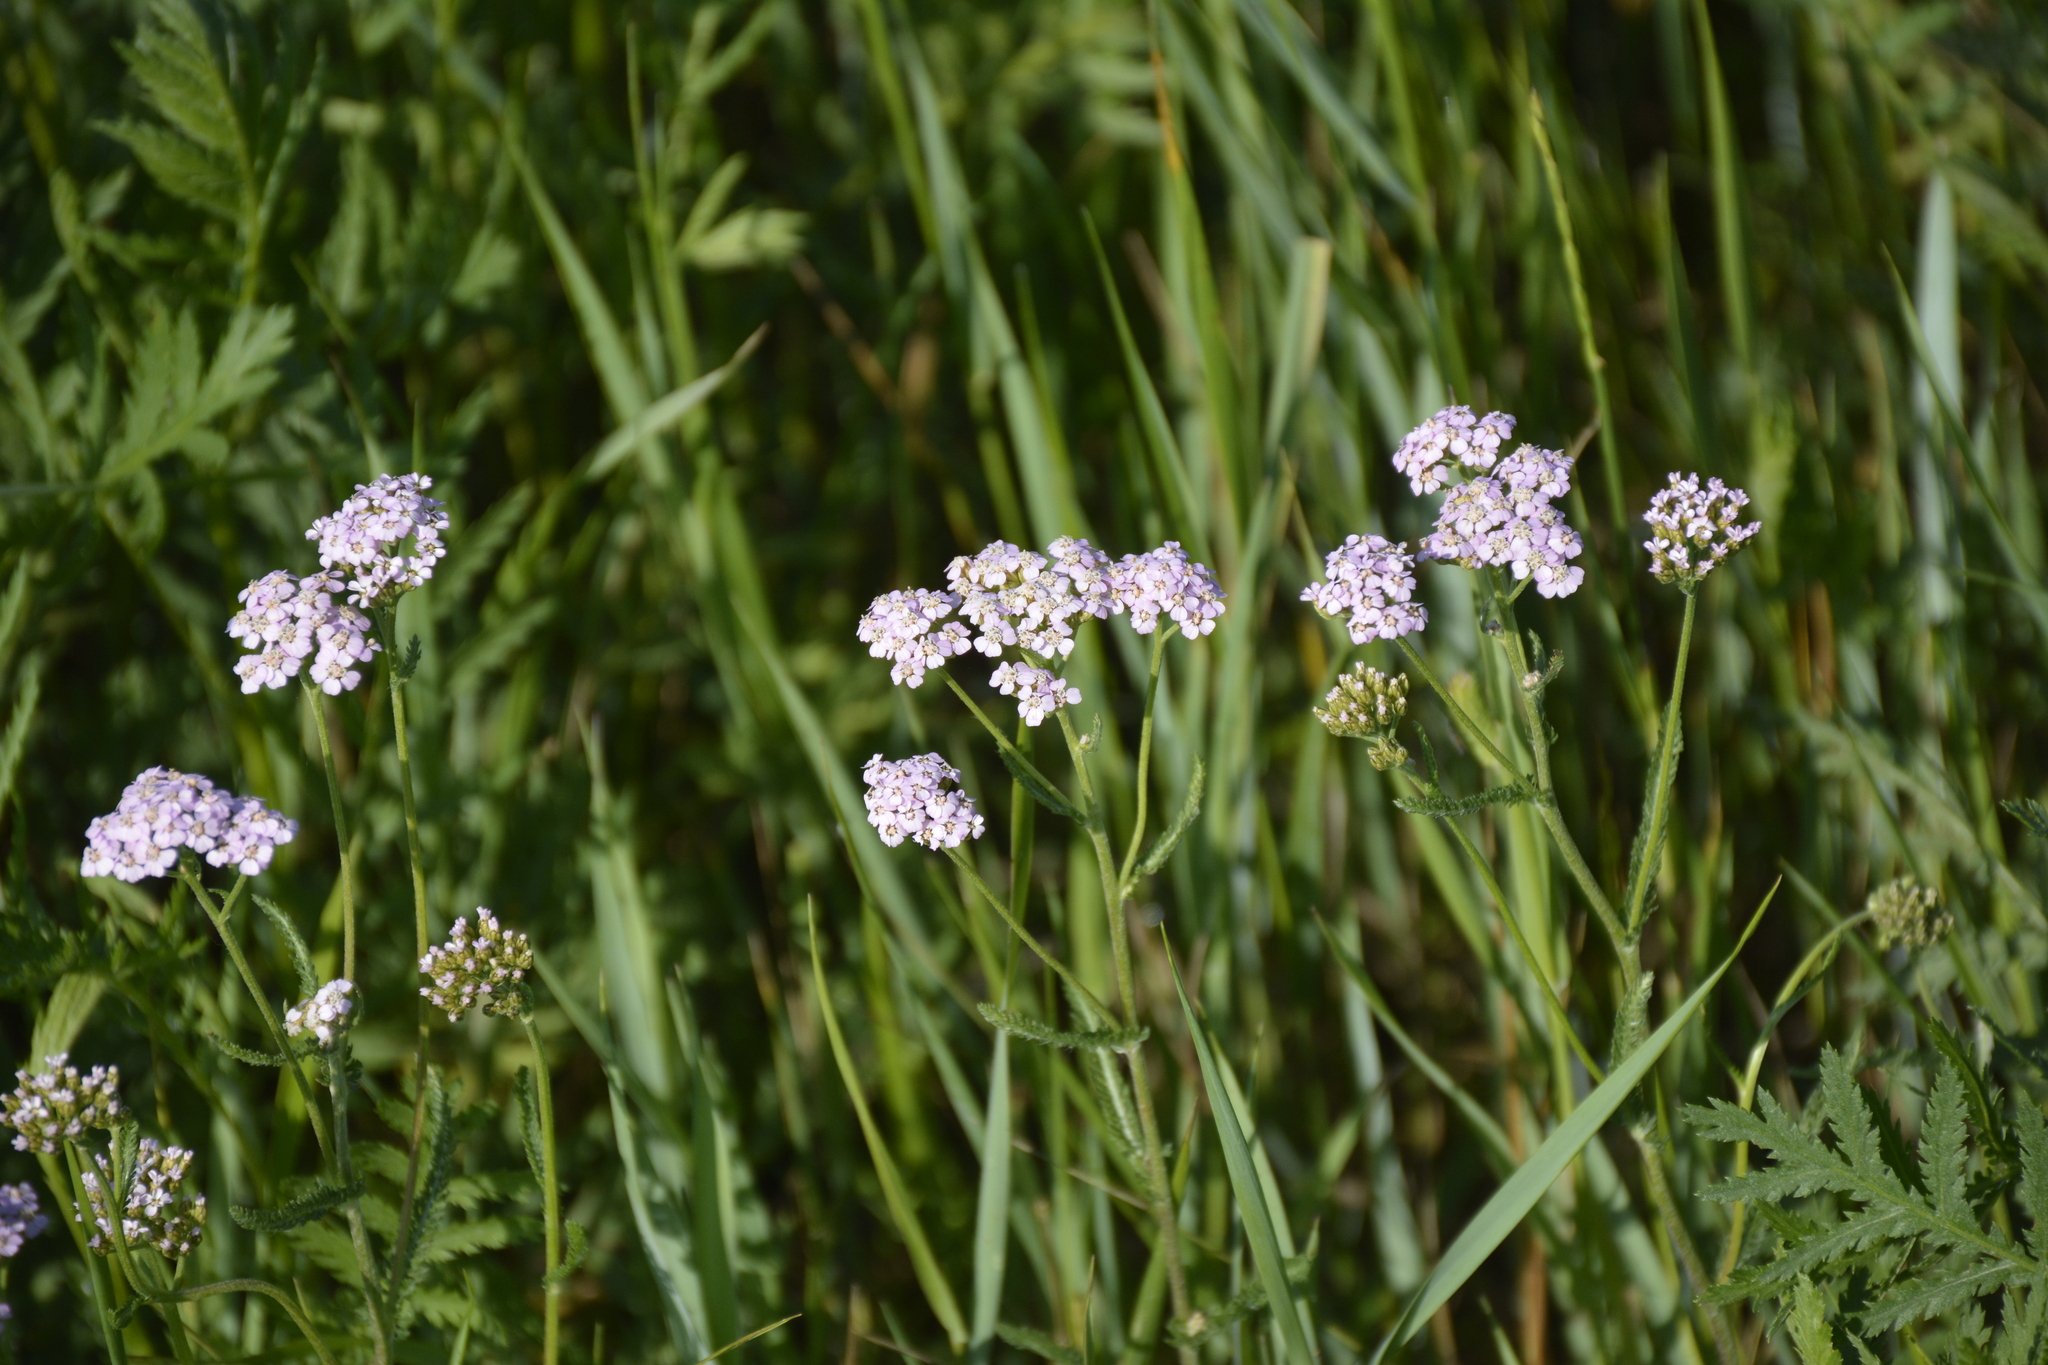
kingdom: Plantae
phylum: Tracheophyta
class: Magnoliopsida
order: Asterales
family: Asteraceae
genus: Achillea
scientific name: Achillea millefolium
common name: Yarrow
